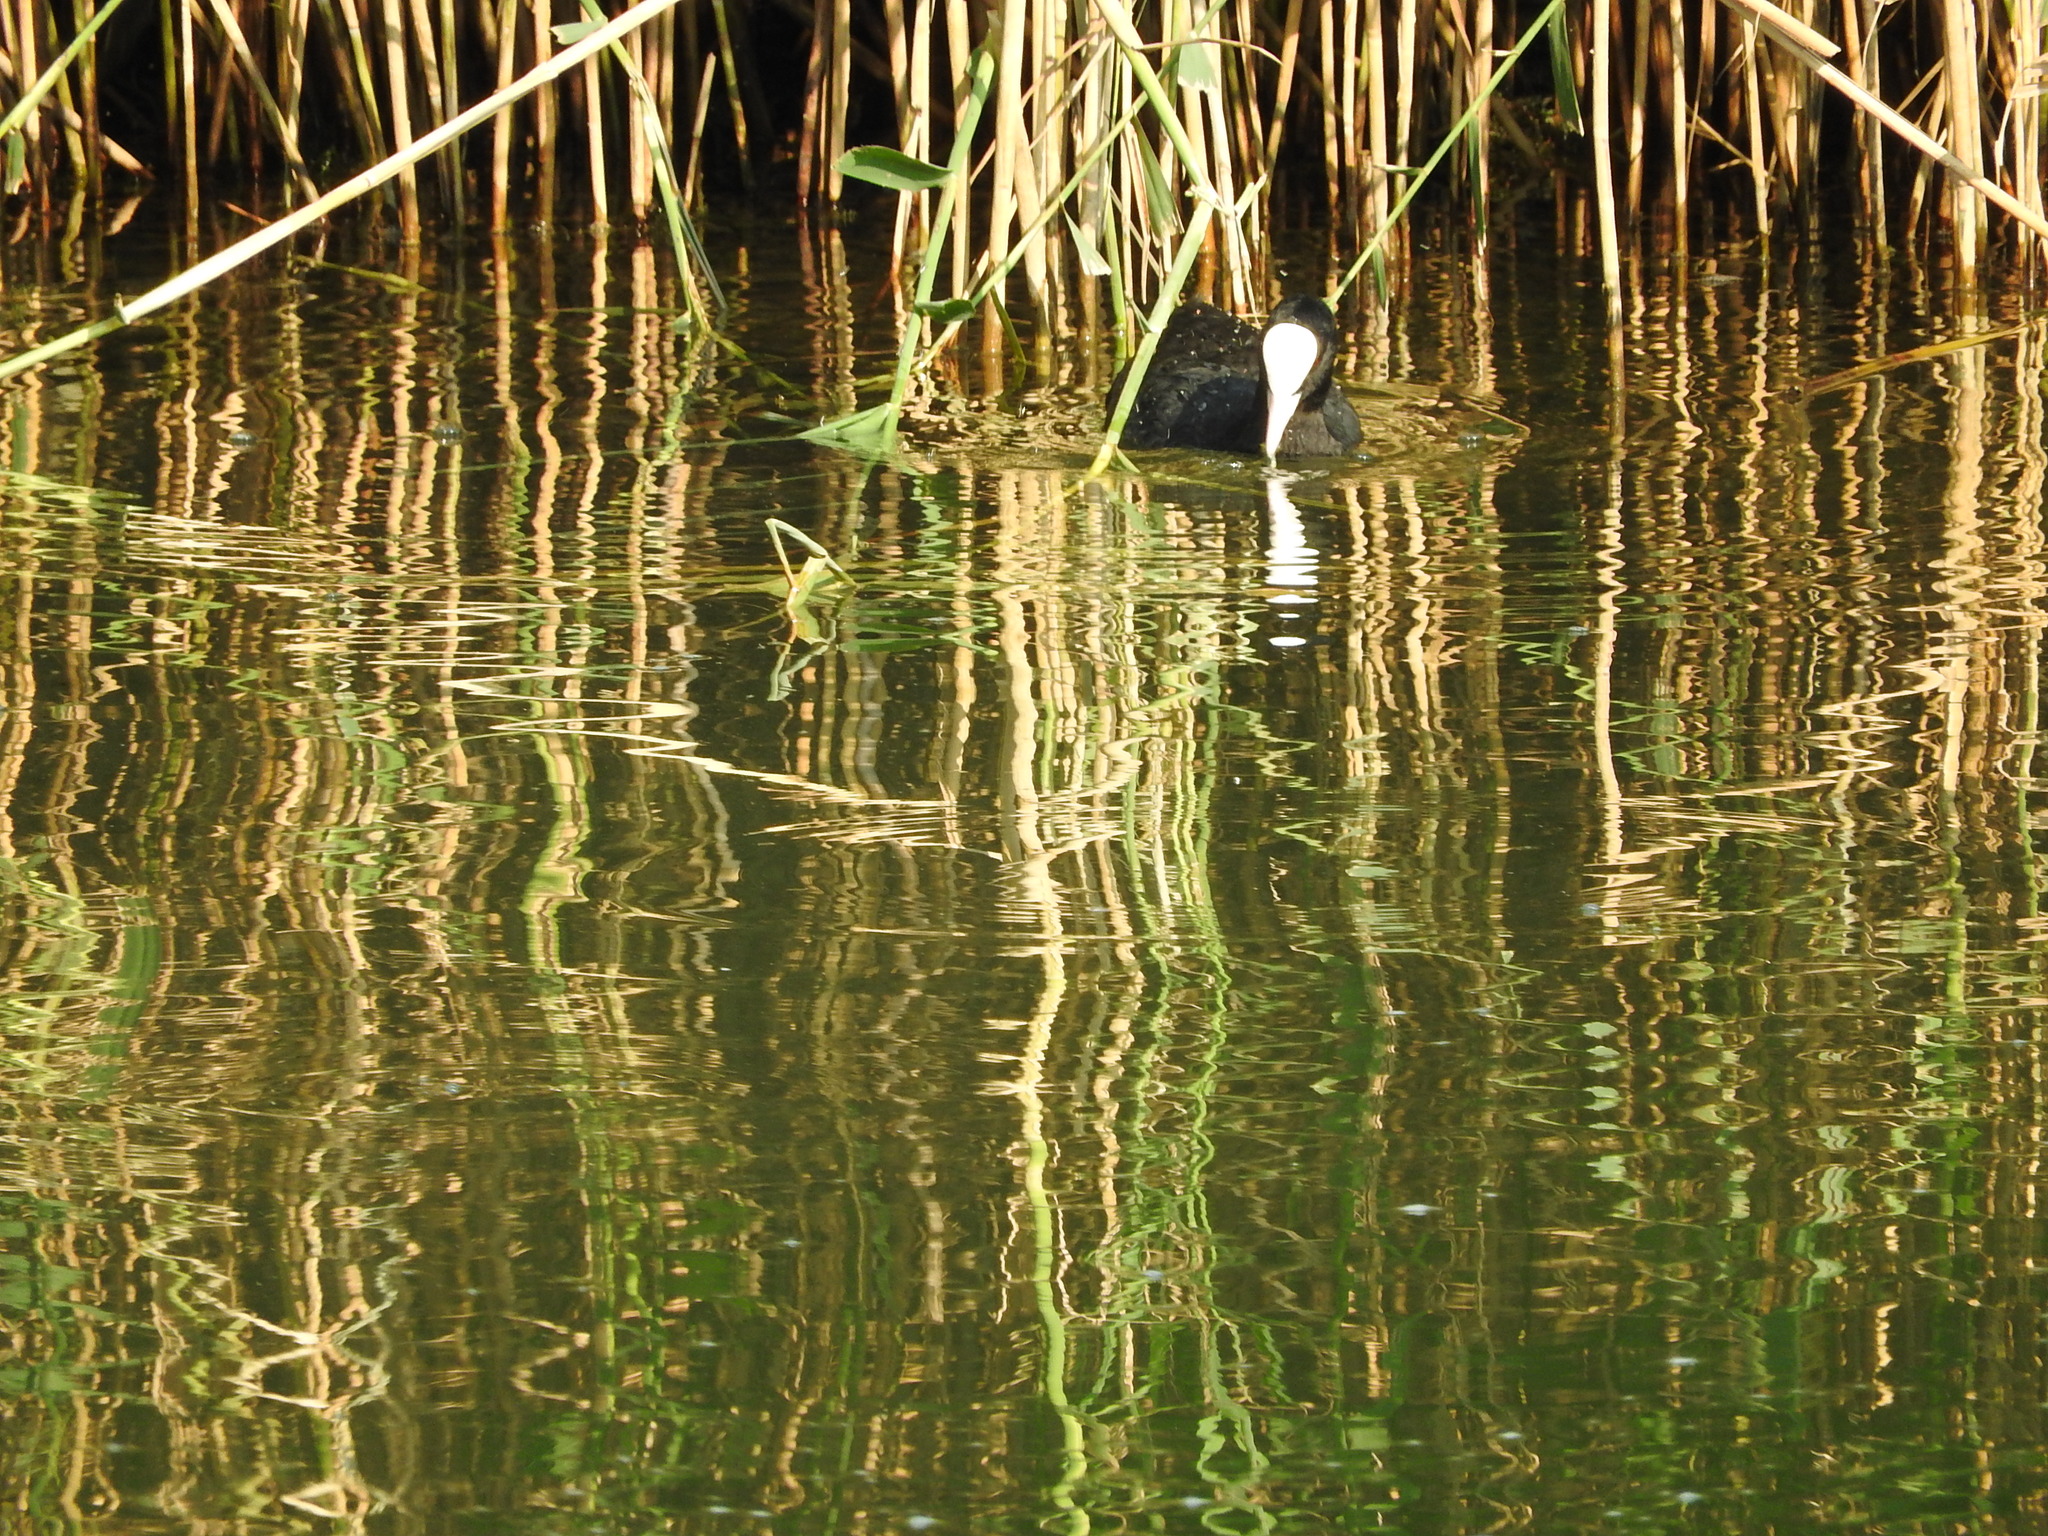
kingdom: Animalia
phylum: Chordata
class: Aves
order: Gruiformes
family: Rallidae
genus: Fulica
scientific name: Fulica atra
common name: Eurasian coot
